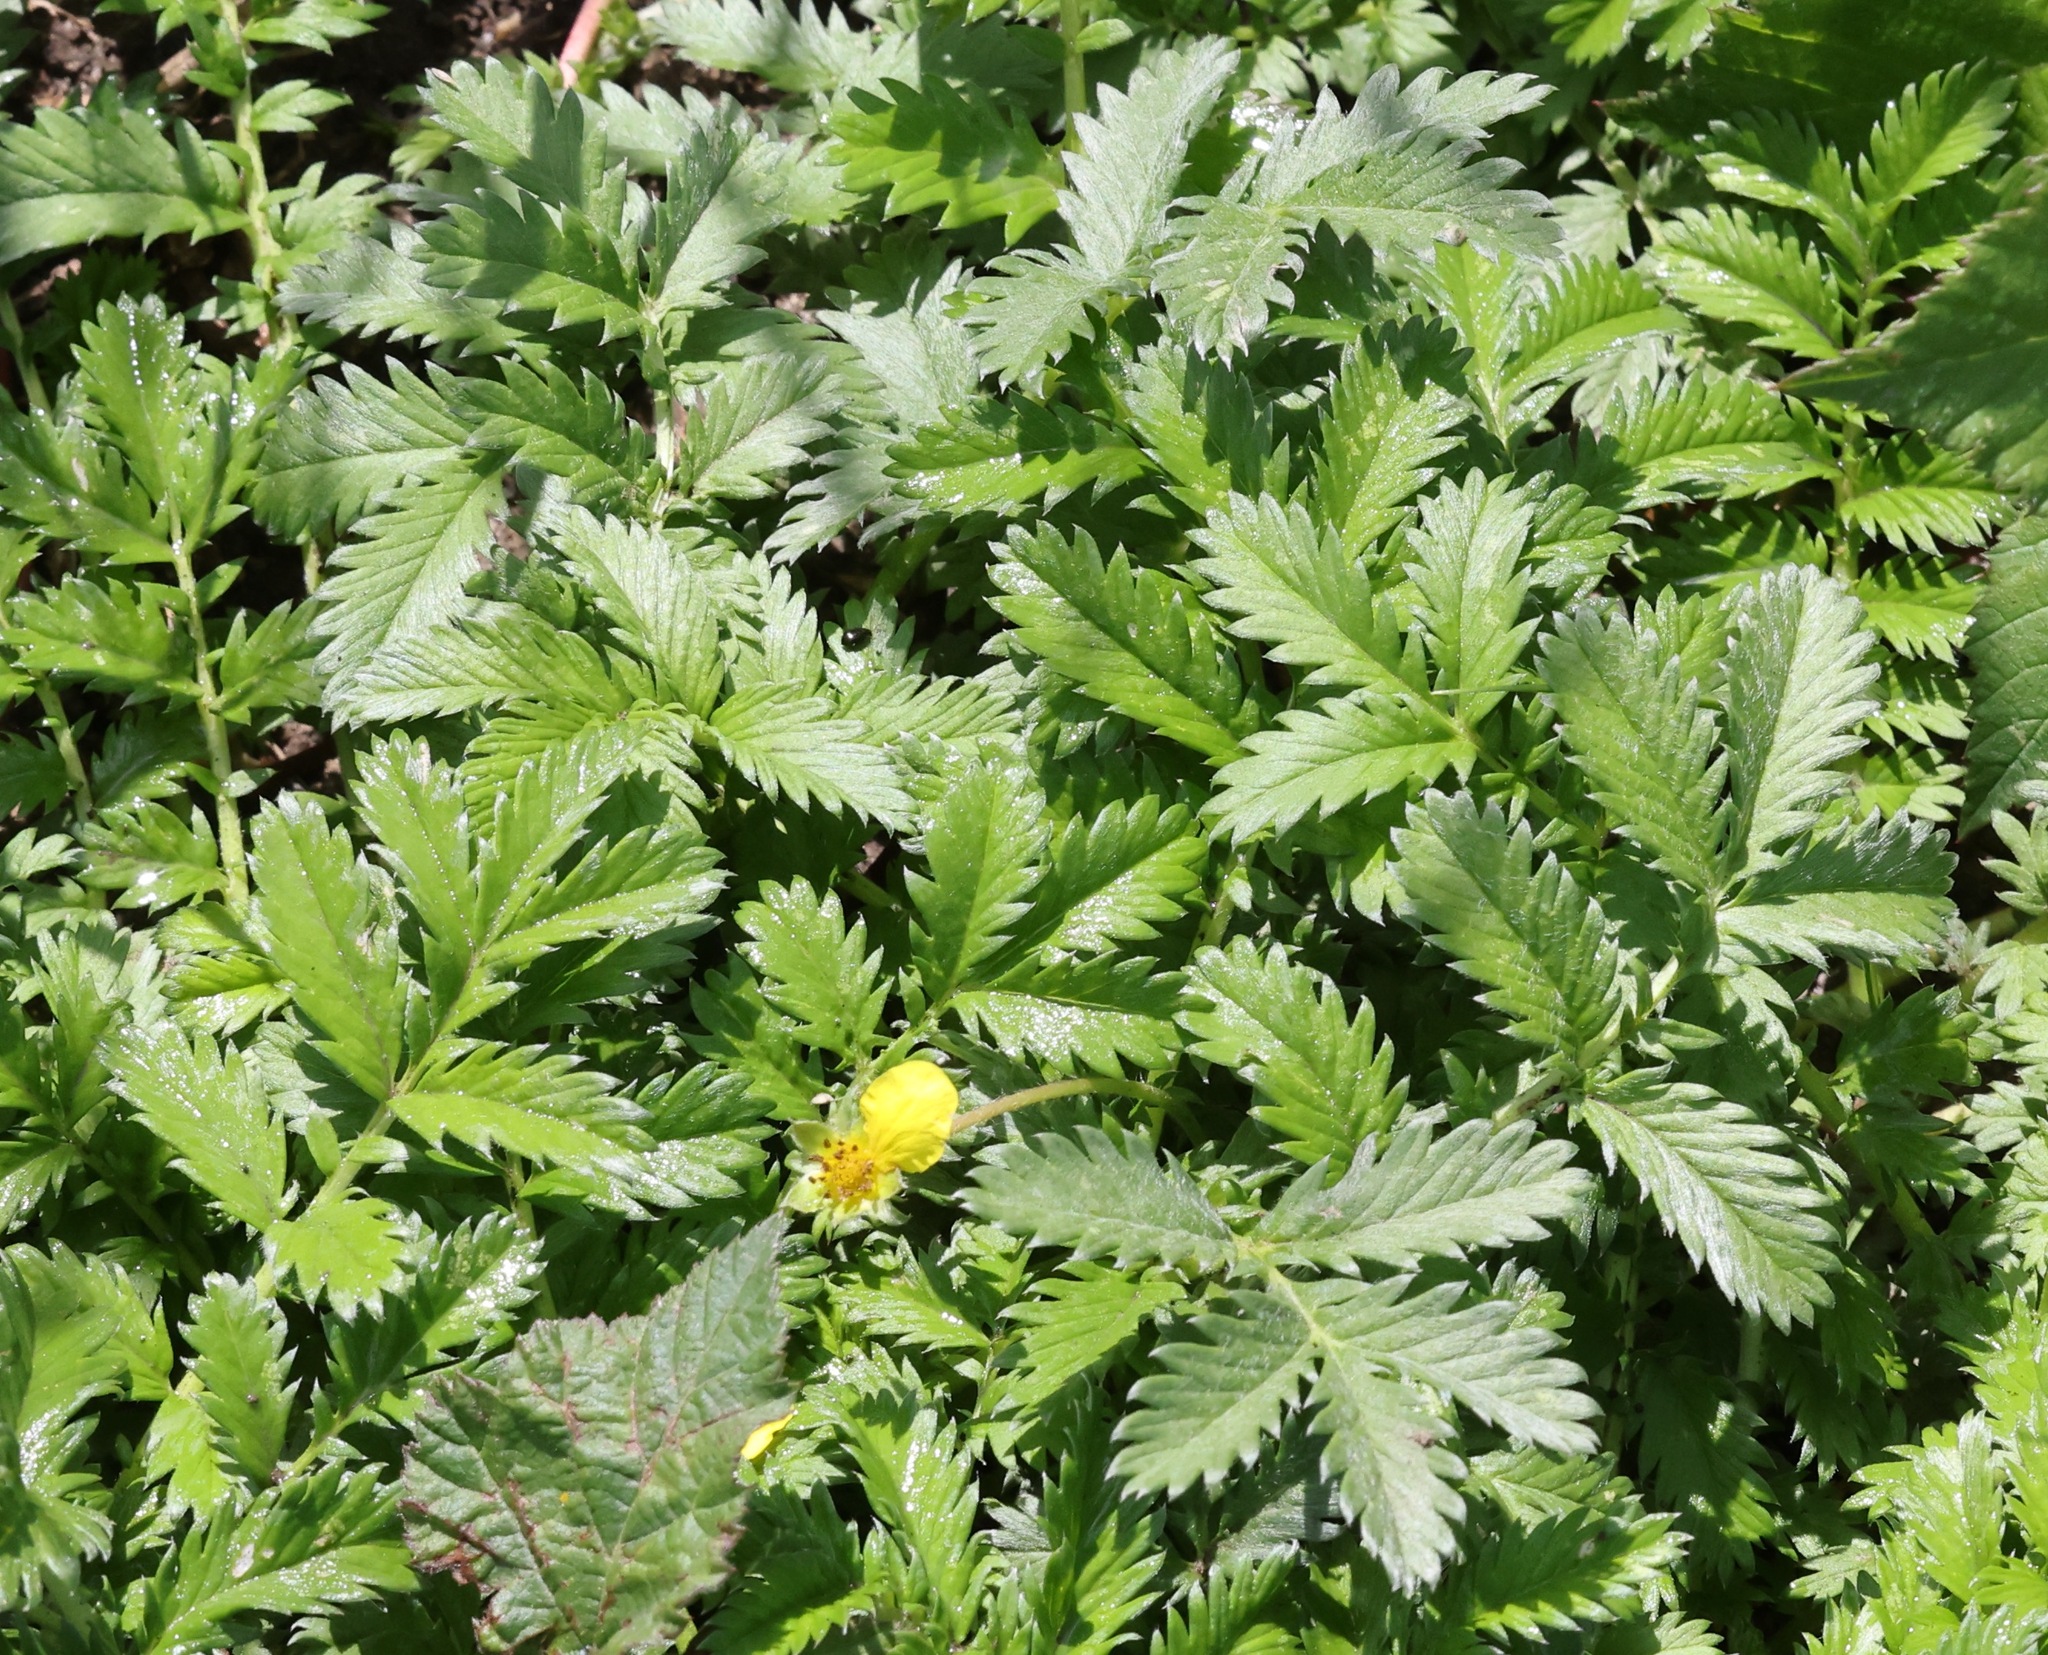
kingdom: Plantae
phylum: Tracheophyta
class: Magnoliopsida
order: Rosales
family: Rosaceae
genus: Argentina
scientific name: Argentina anserina
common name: Common silverweed
